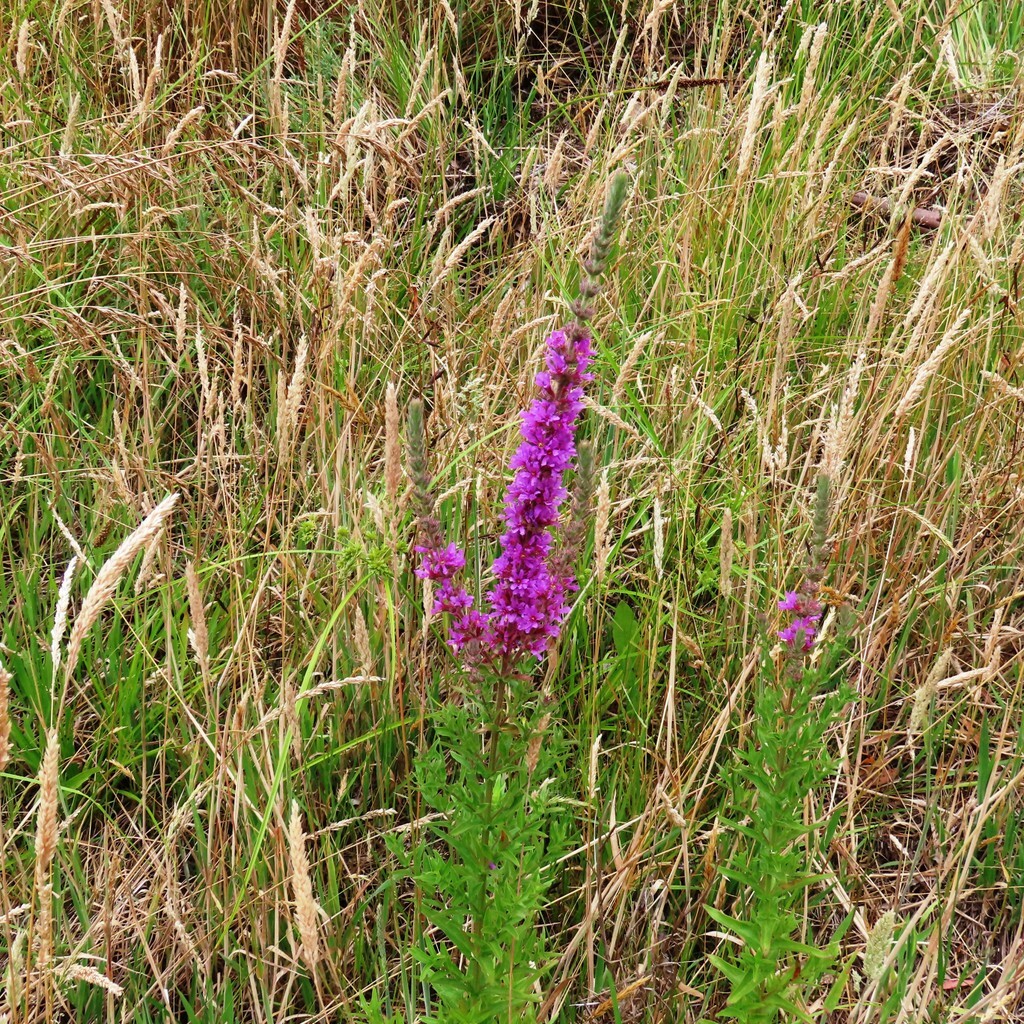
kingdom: Plantae
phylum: Tracheophyta
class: Magnoliopsida
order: Myrtales
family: Lythraceae
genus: Lythrum
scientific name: Lythrum salicaria
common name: Purple loosestrife
